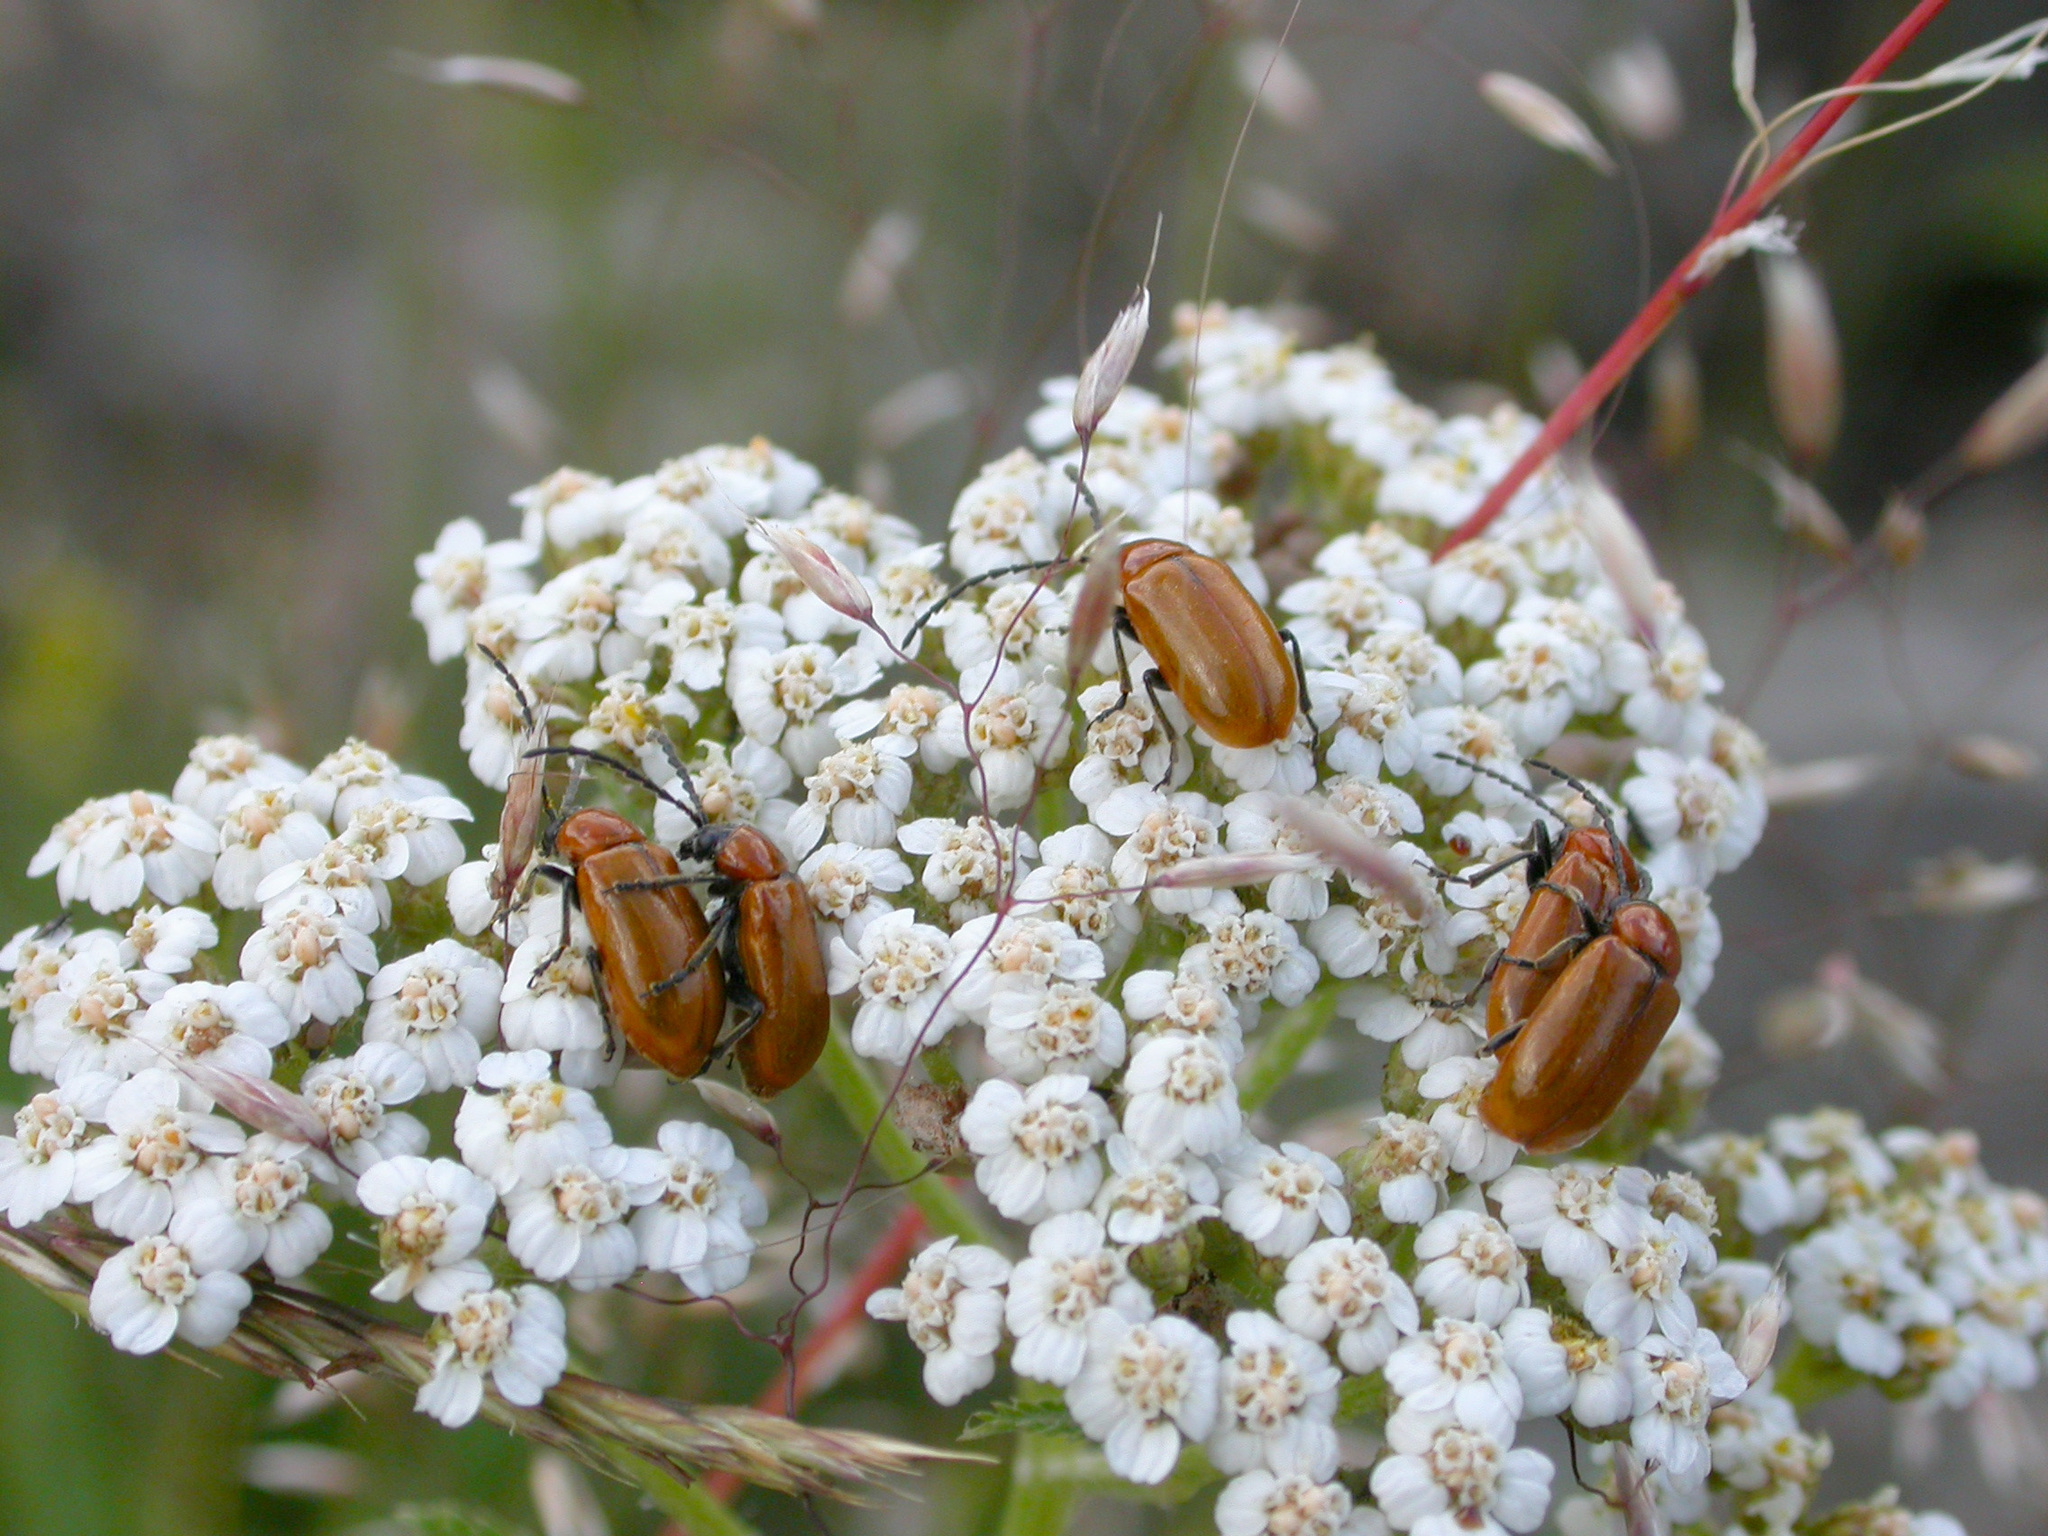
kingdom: Animalia
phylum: Arthropoda
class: Insecta
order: Coleoptera
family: Chrysomelidae
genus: Exosoma
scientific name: Exosoma lusitanicum
